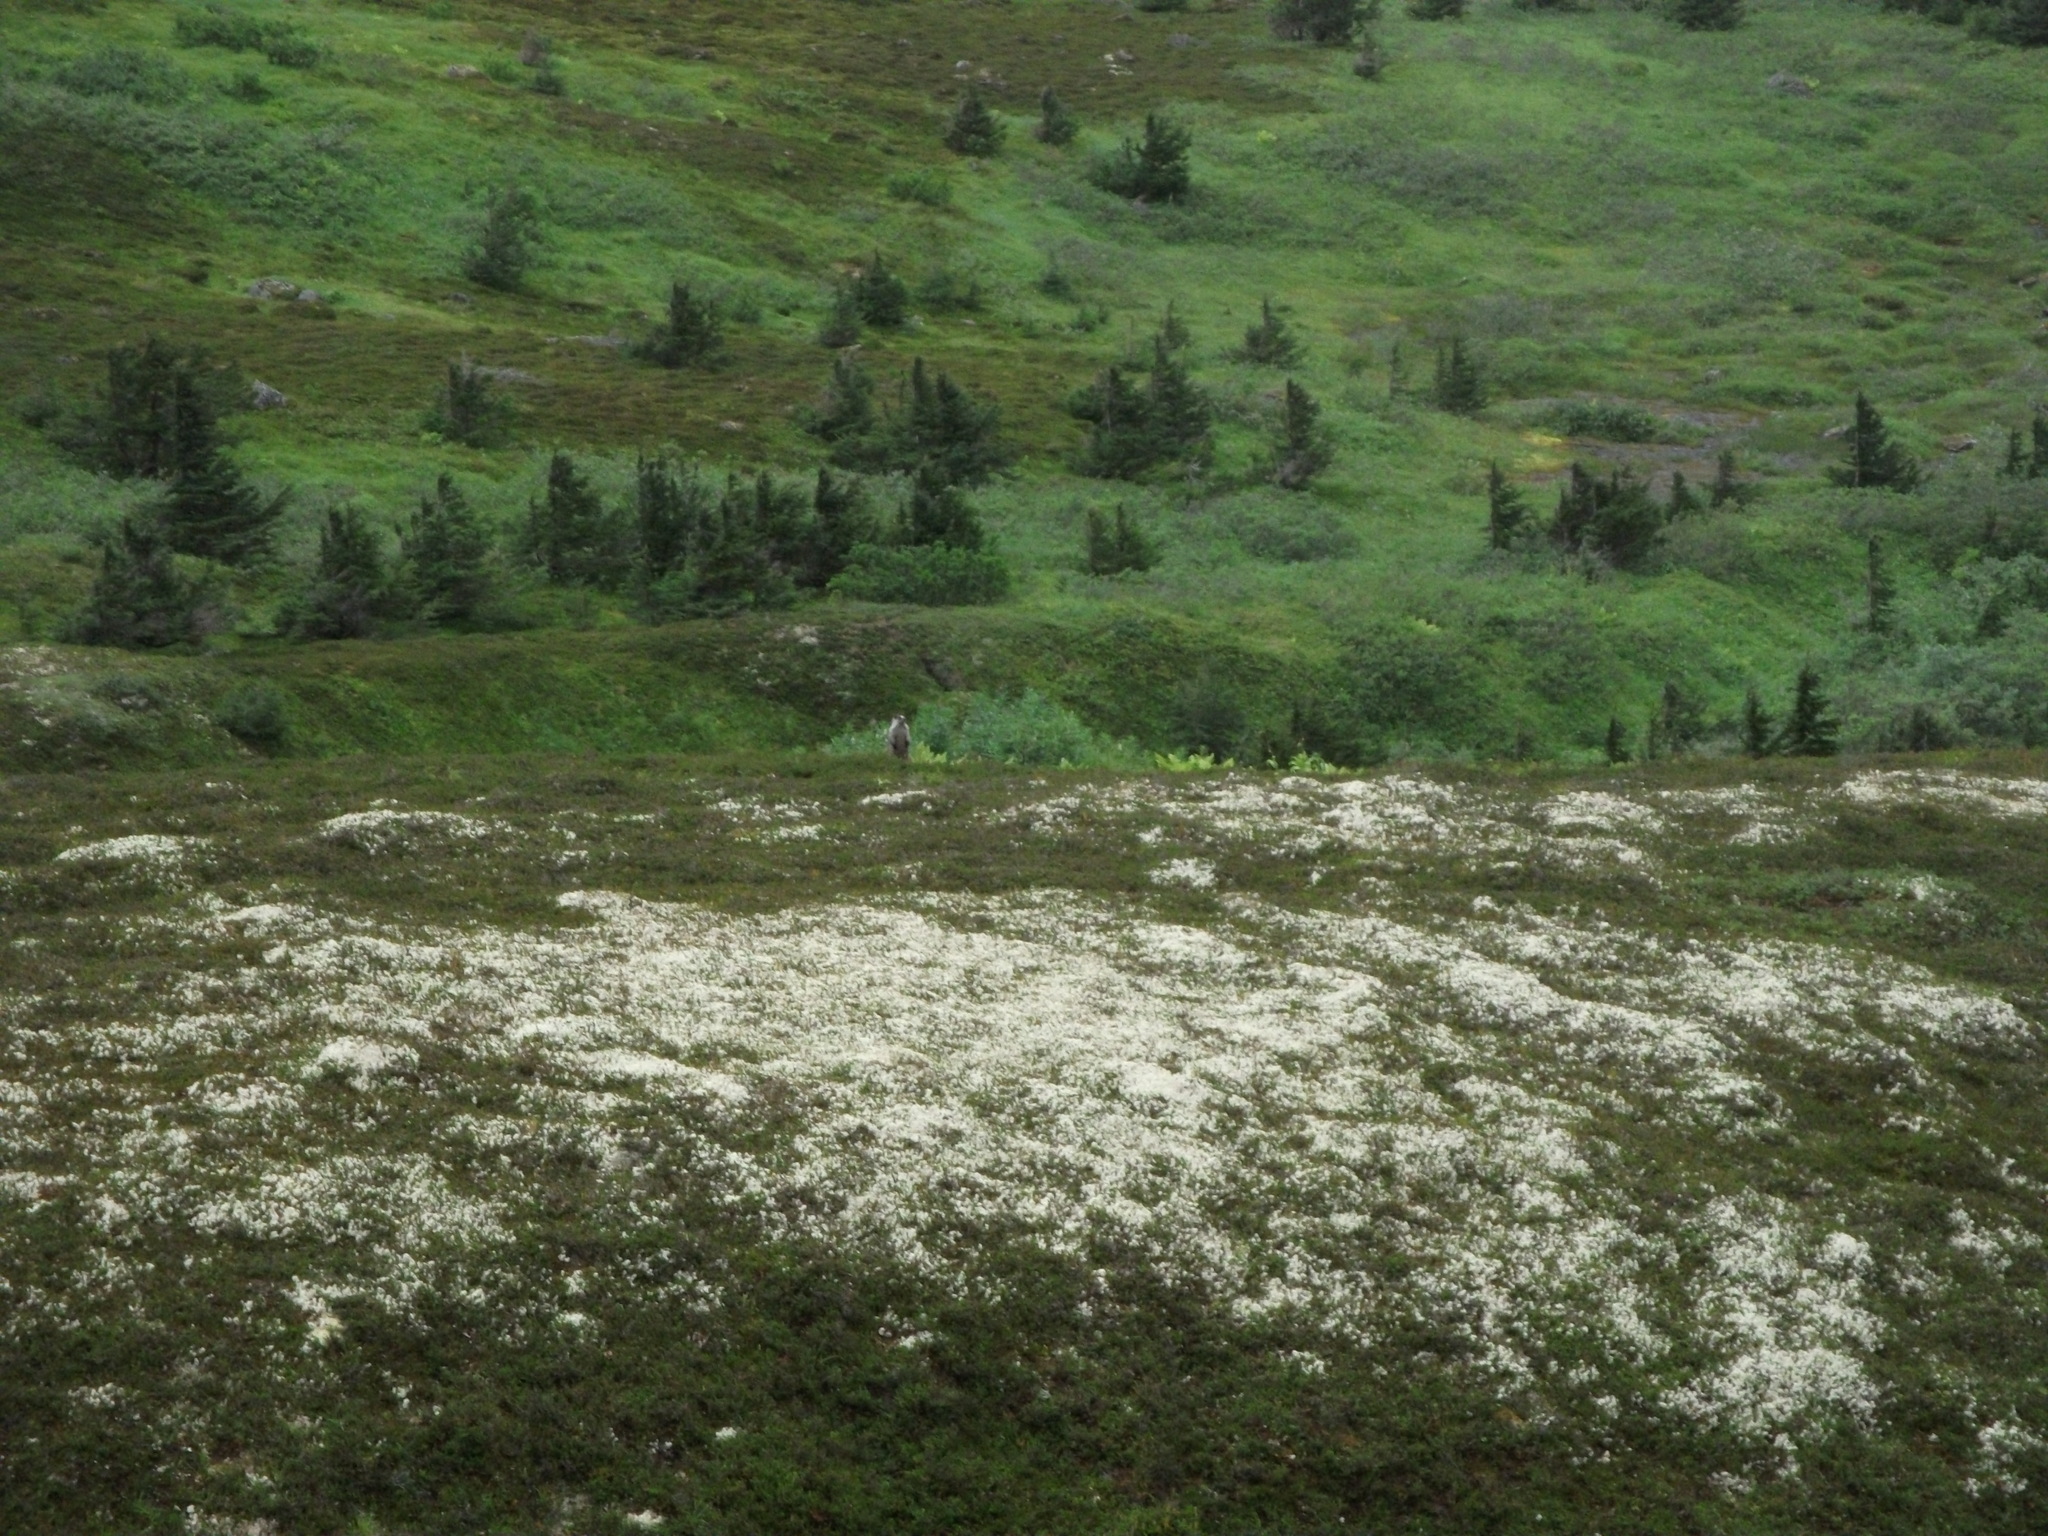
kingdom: Animalia
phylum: Chordata
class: Mammalia
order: Rodentia
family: Sciuridae
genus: Marmota
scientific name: Marmota caligata
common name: Hoary marmot
